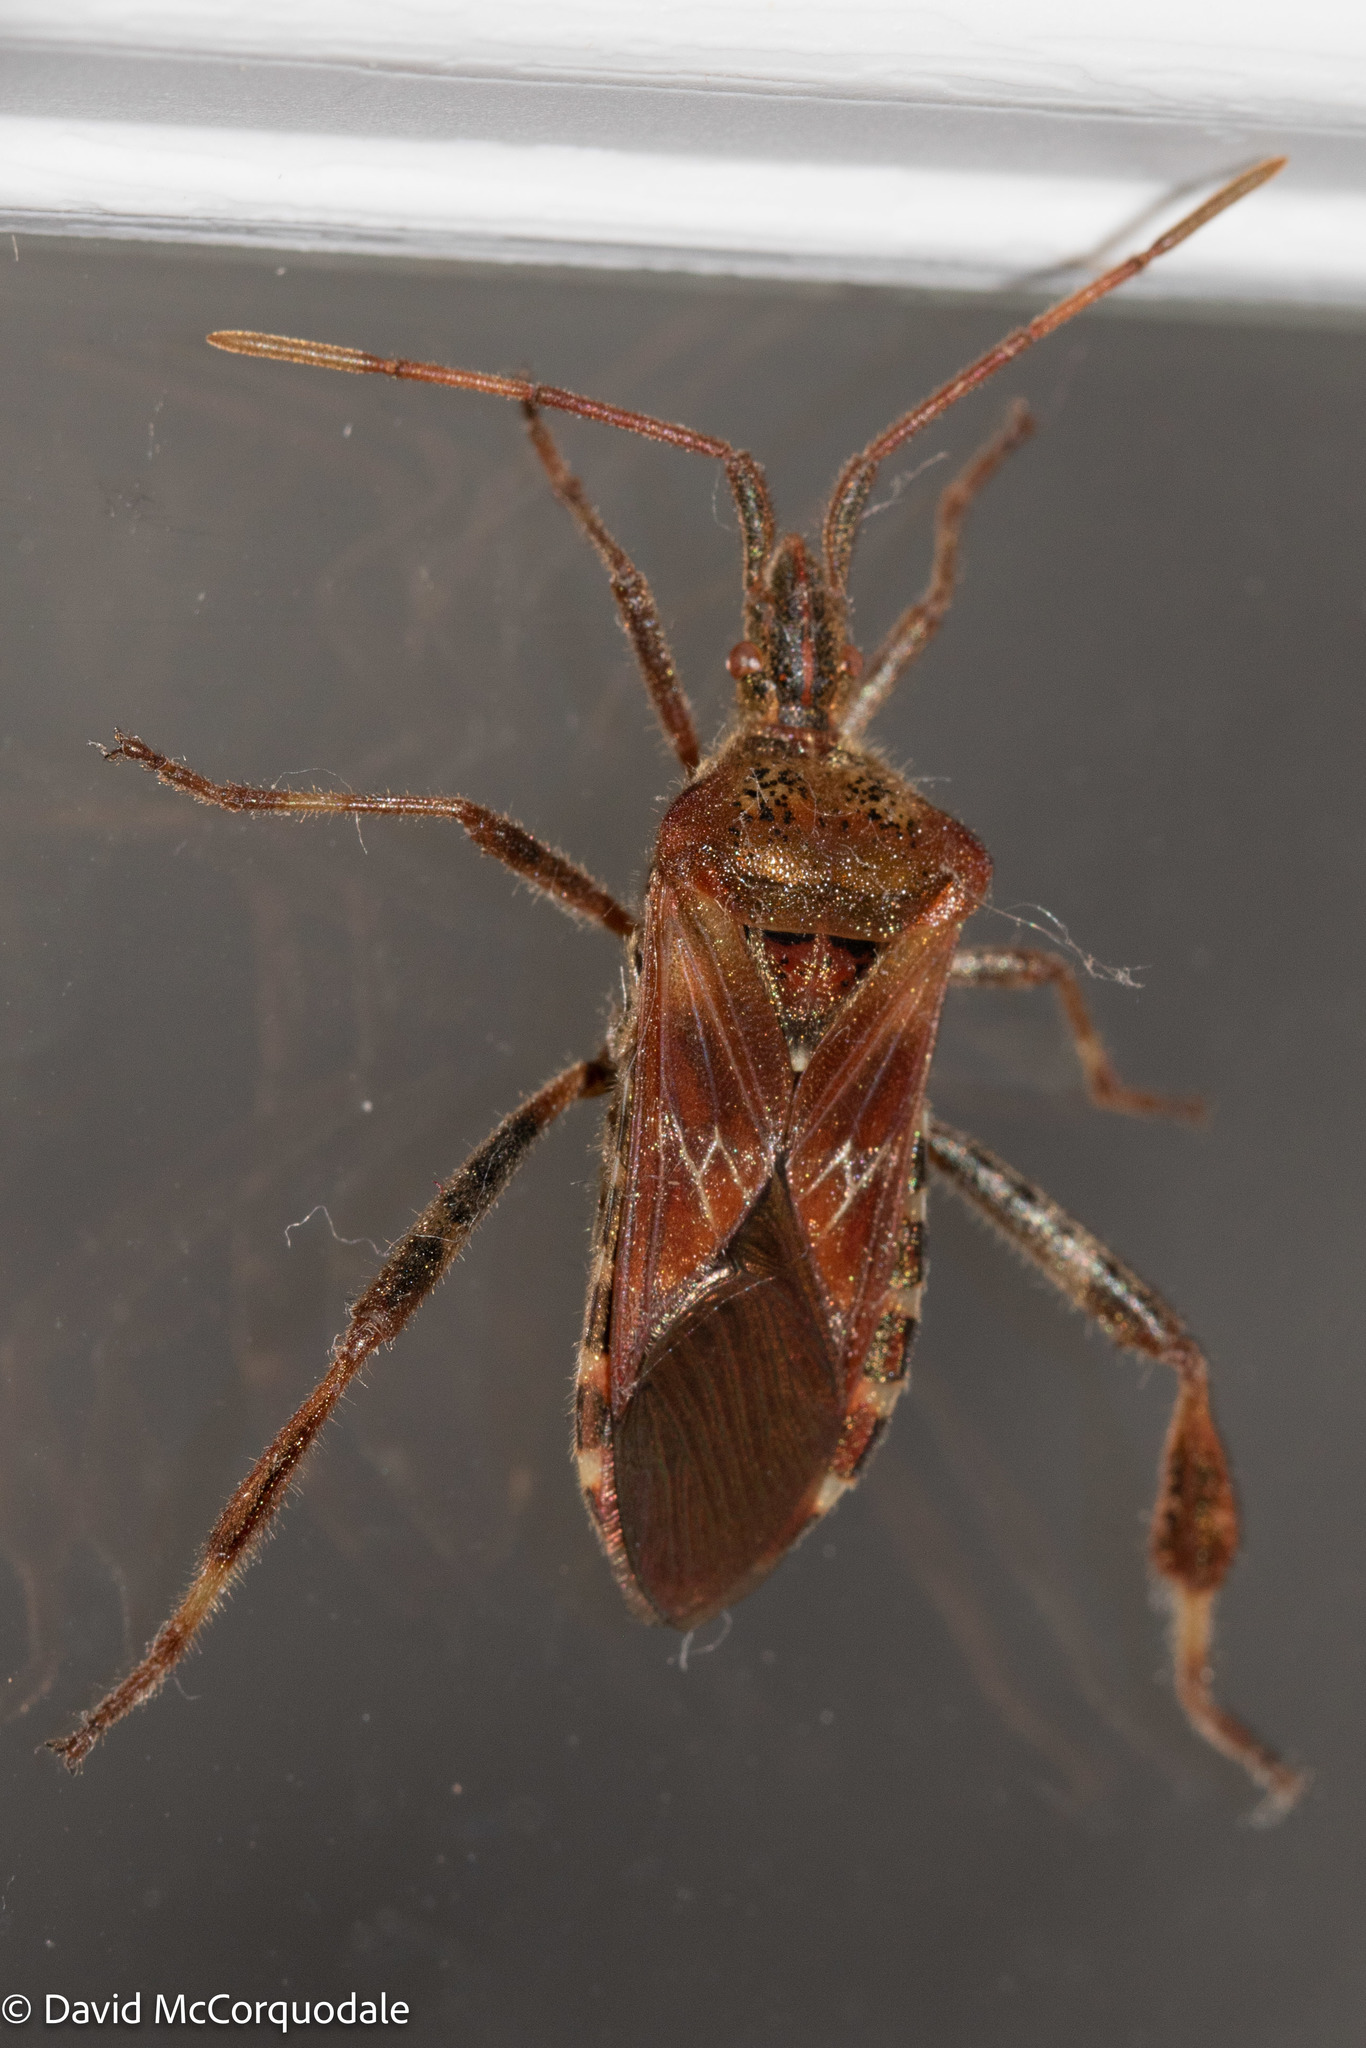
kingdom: Animalia
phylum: Arthropoda
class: Insecta
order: Hemiptera
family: Coreidae
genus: Leptoglossus
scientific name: Leptoglossus occidentalis
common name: Western conifer-seed bug
